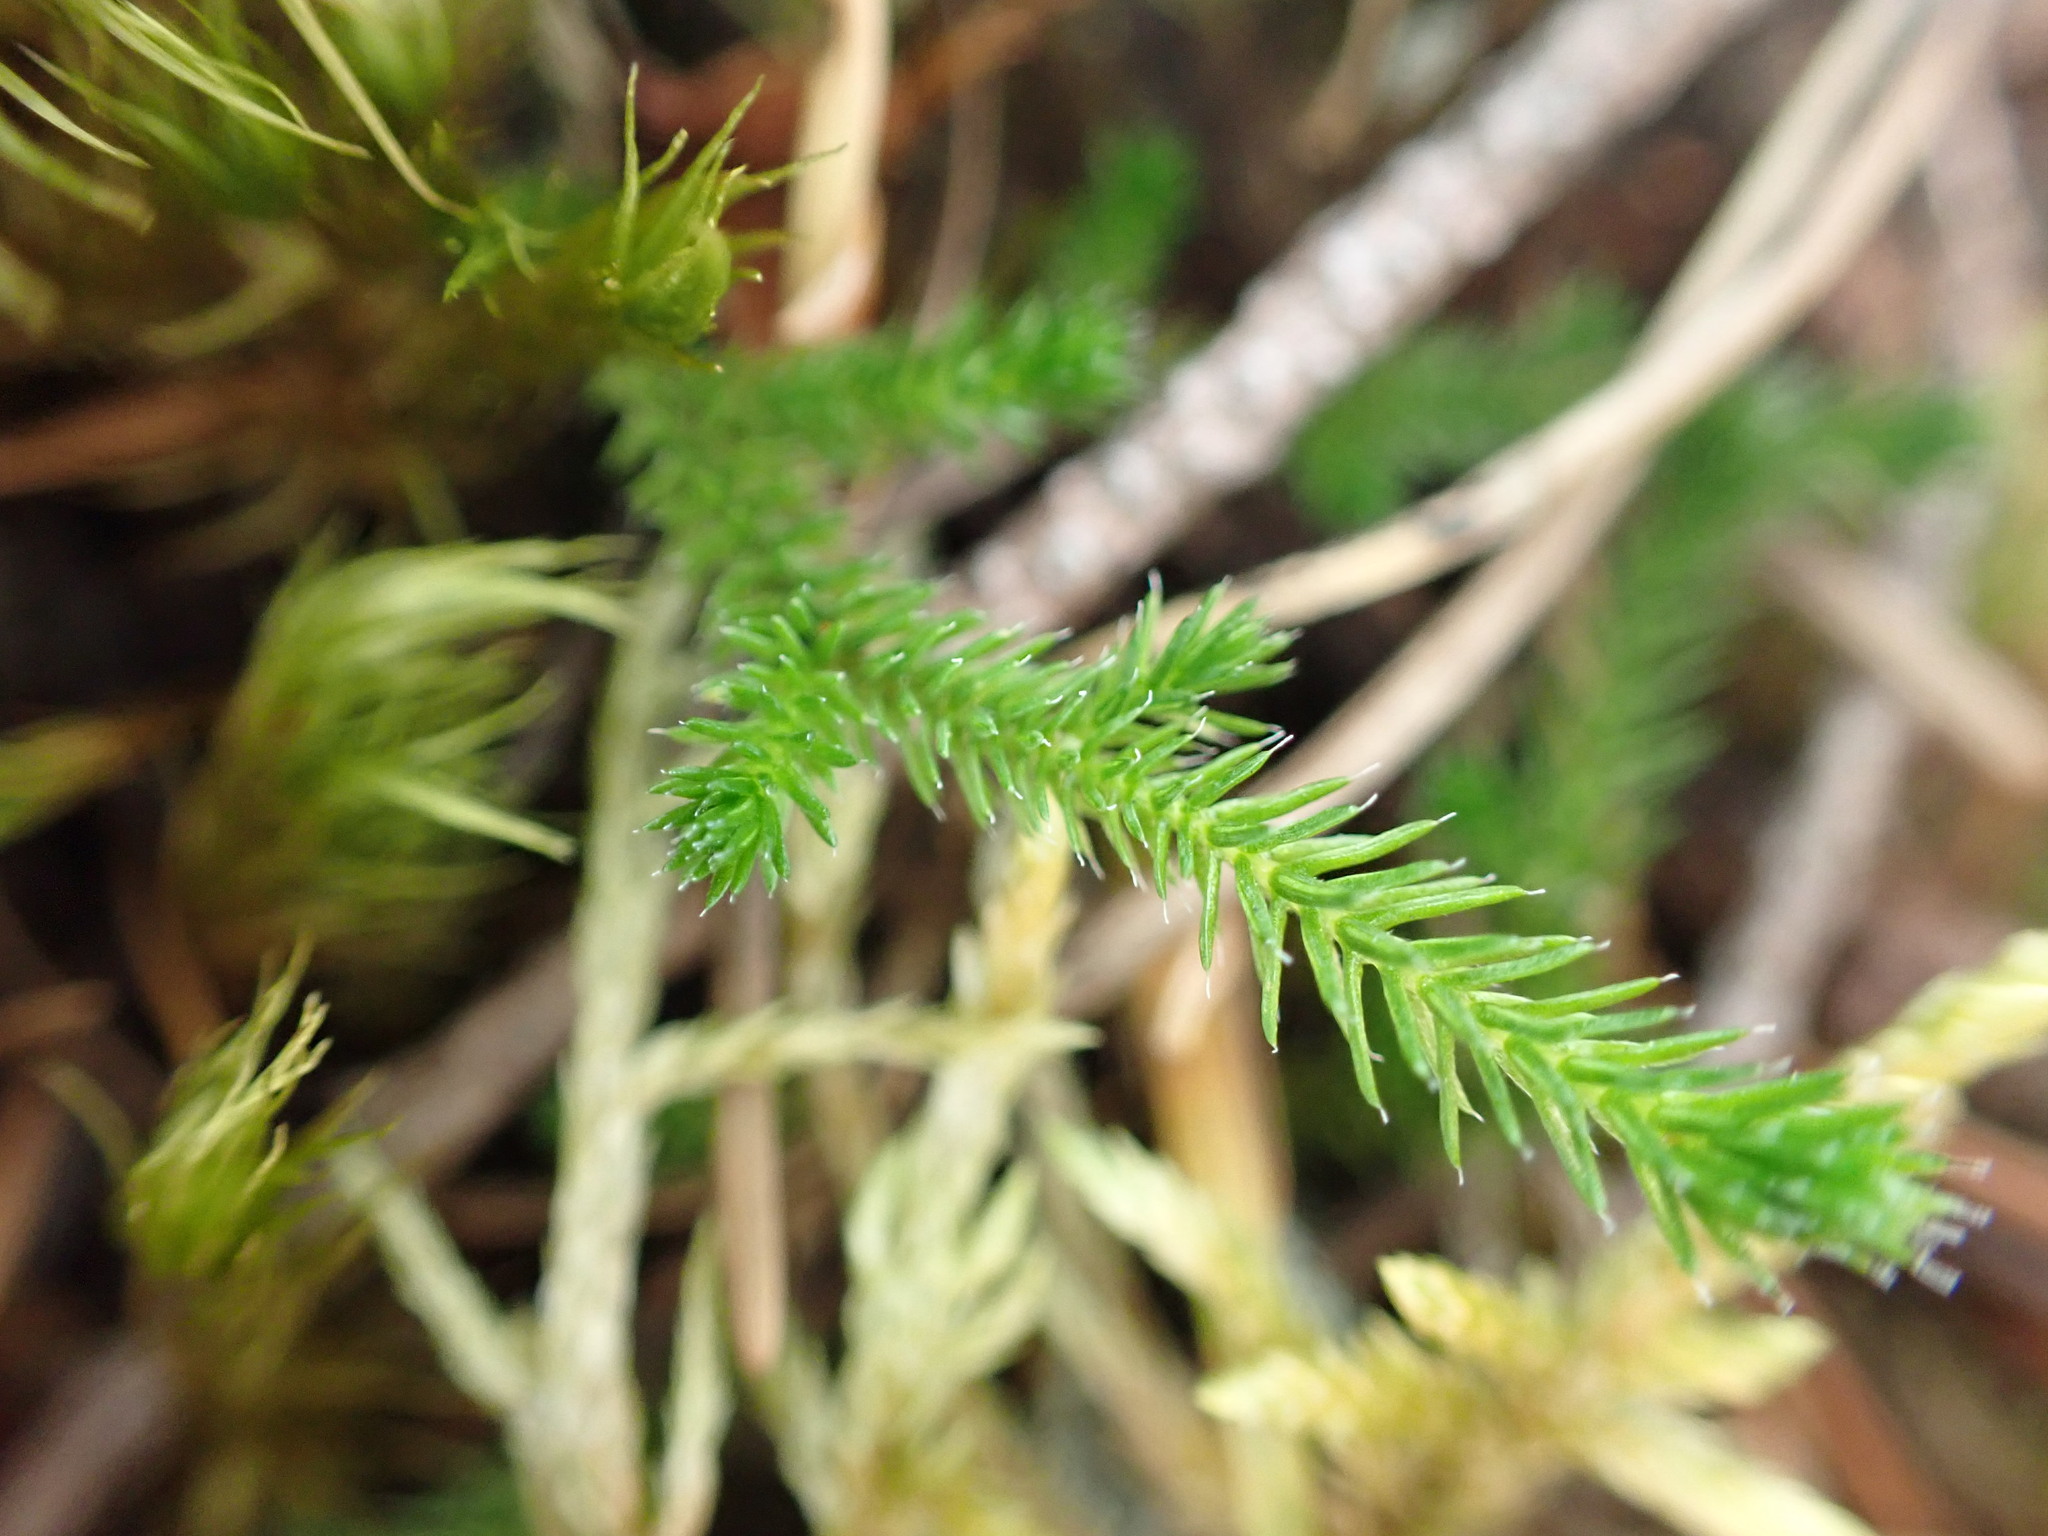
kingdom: Plantae
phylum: Tracheophyta
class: Lycopodiopsida
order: Selaginellales
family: Selaginellaceae
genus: Selaginella
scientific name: Selaginella wallacei
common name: Wallace's selaginella
